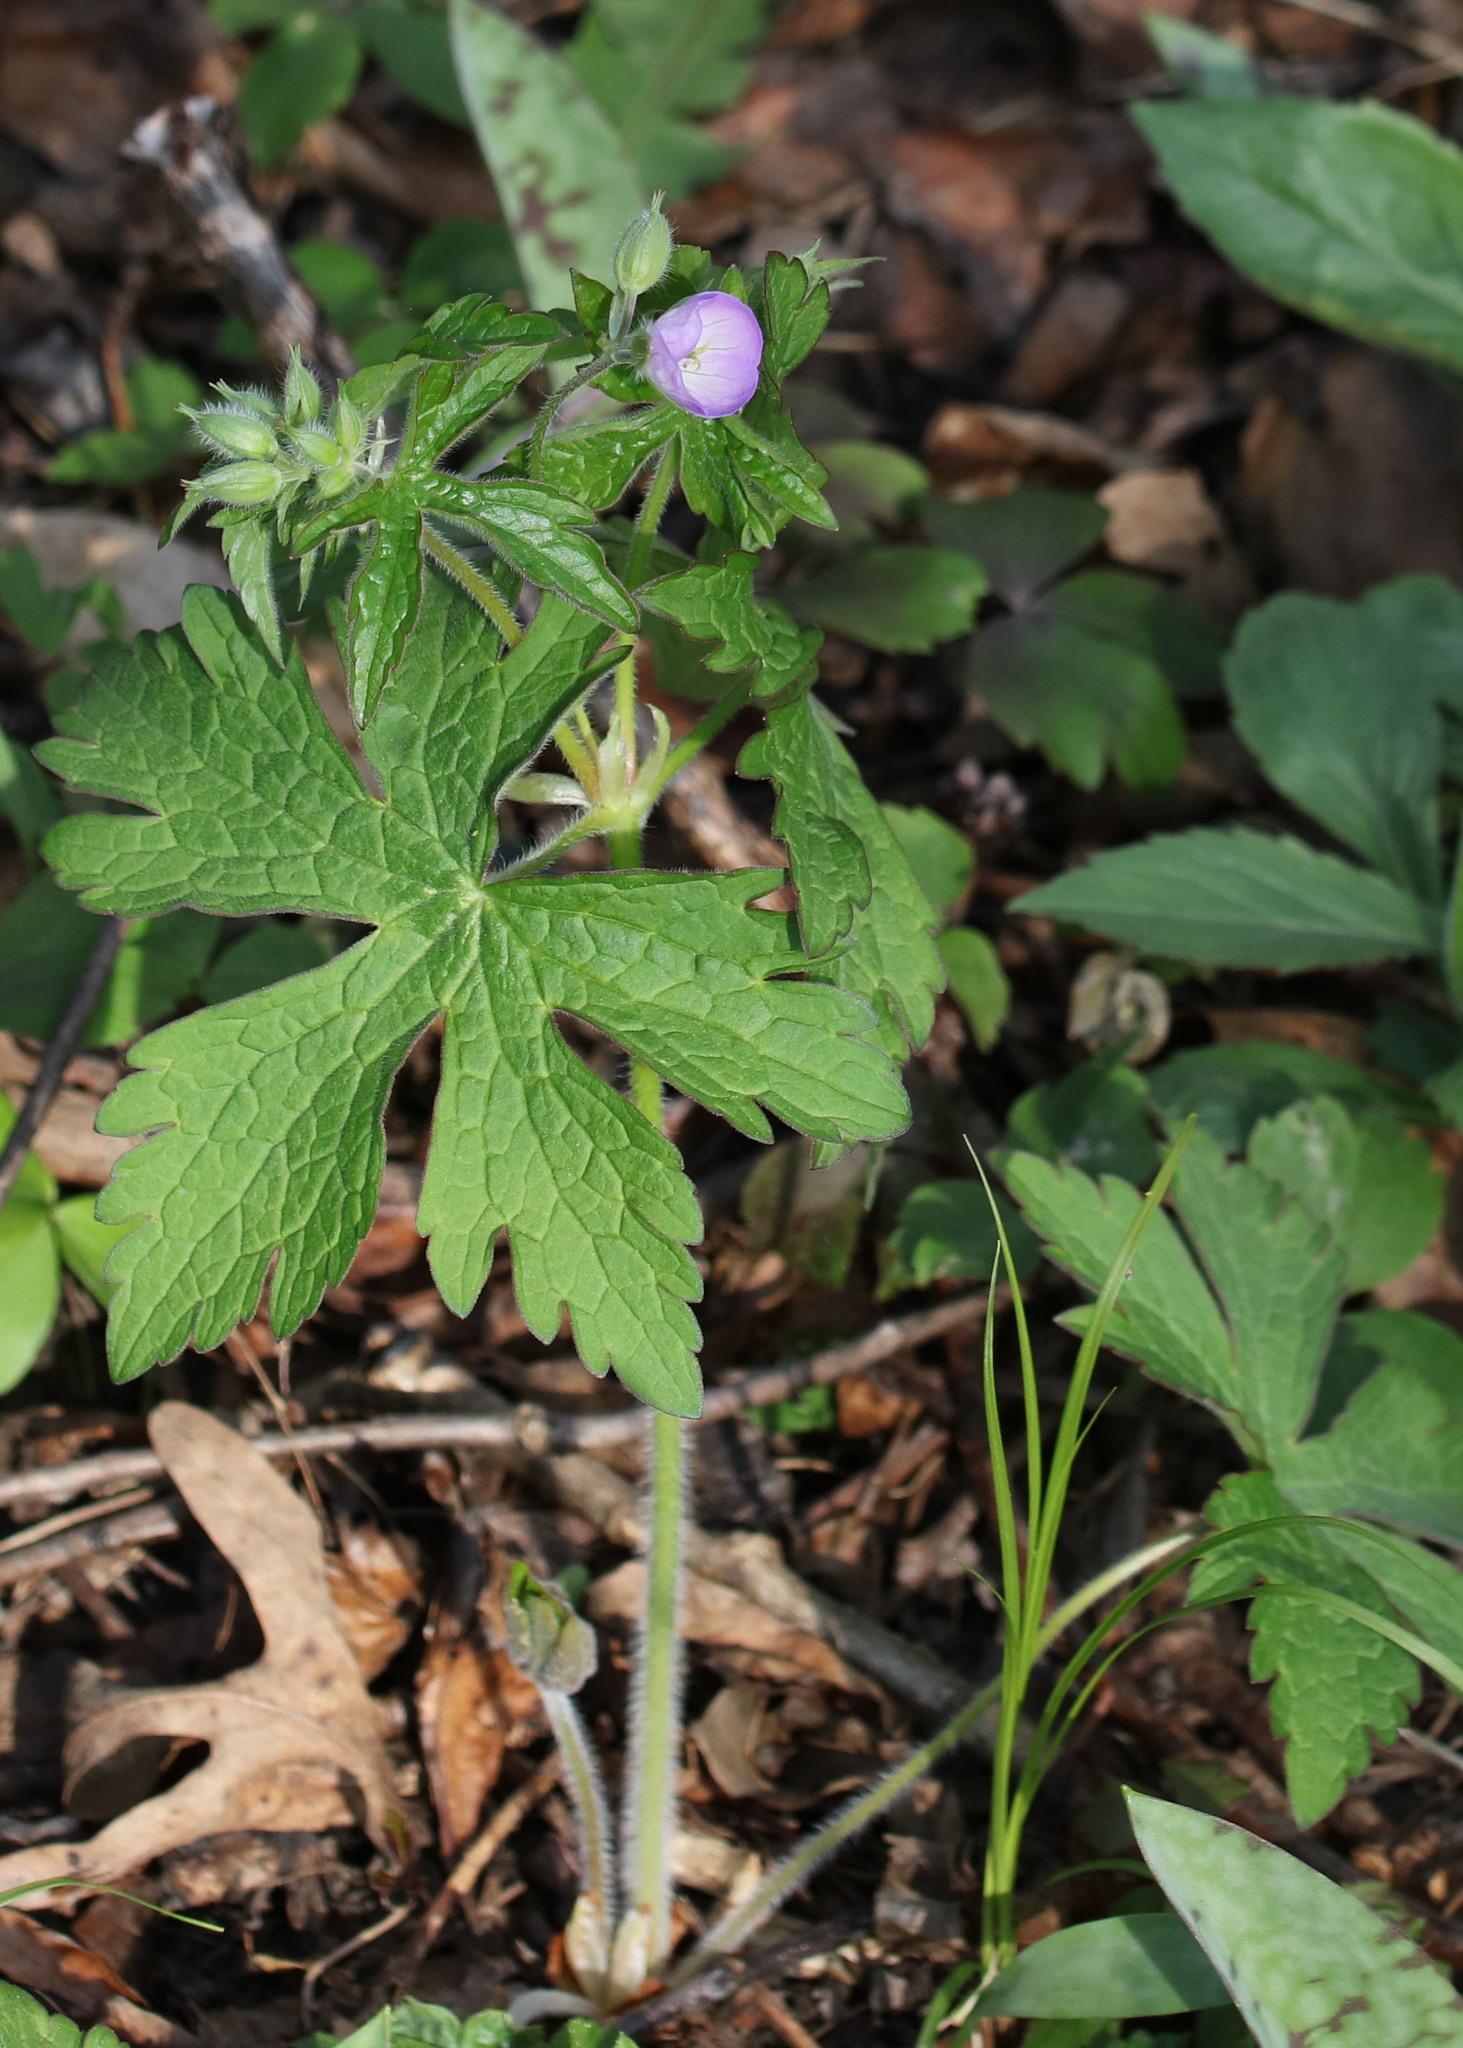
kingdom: Plantae
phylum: Tracheophyta
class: Magnoliopsida
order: Geraniales
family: Geraniaceae
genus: Geranium
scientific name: Geranium maculatum
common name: Spotted geranium
